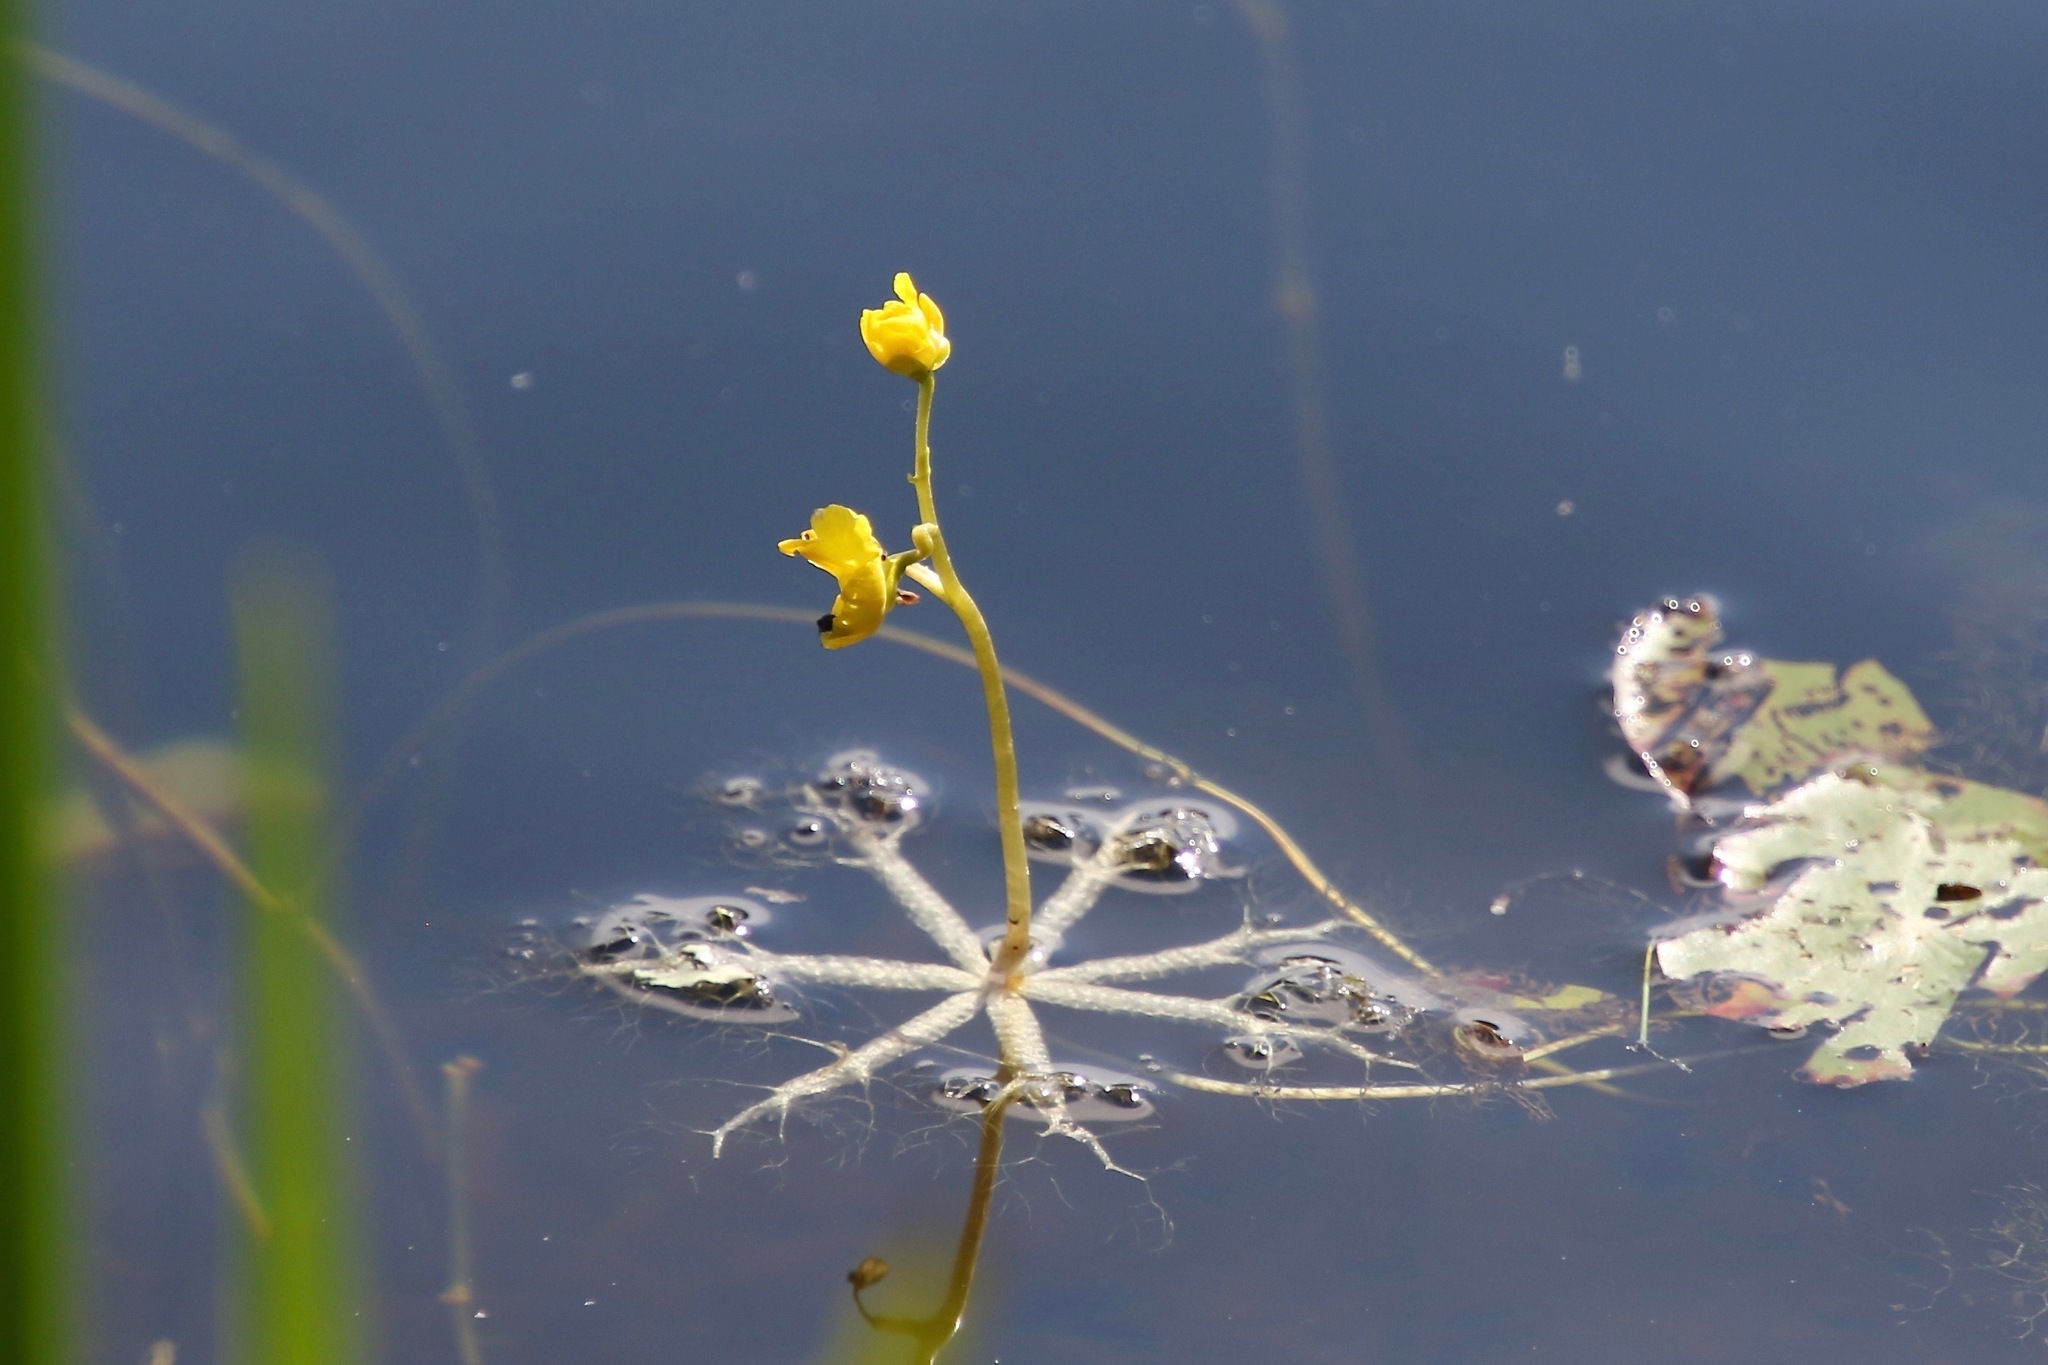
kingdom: Plantae
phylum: Tracheophyta
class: Magnoliopsida
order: Lamiales
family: Lentibulariaceae
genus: Utricularia
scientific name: Utricularia radiata
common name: Floating bladderwort
